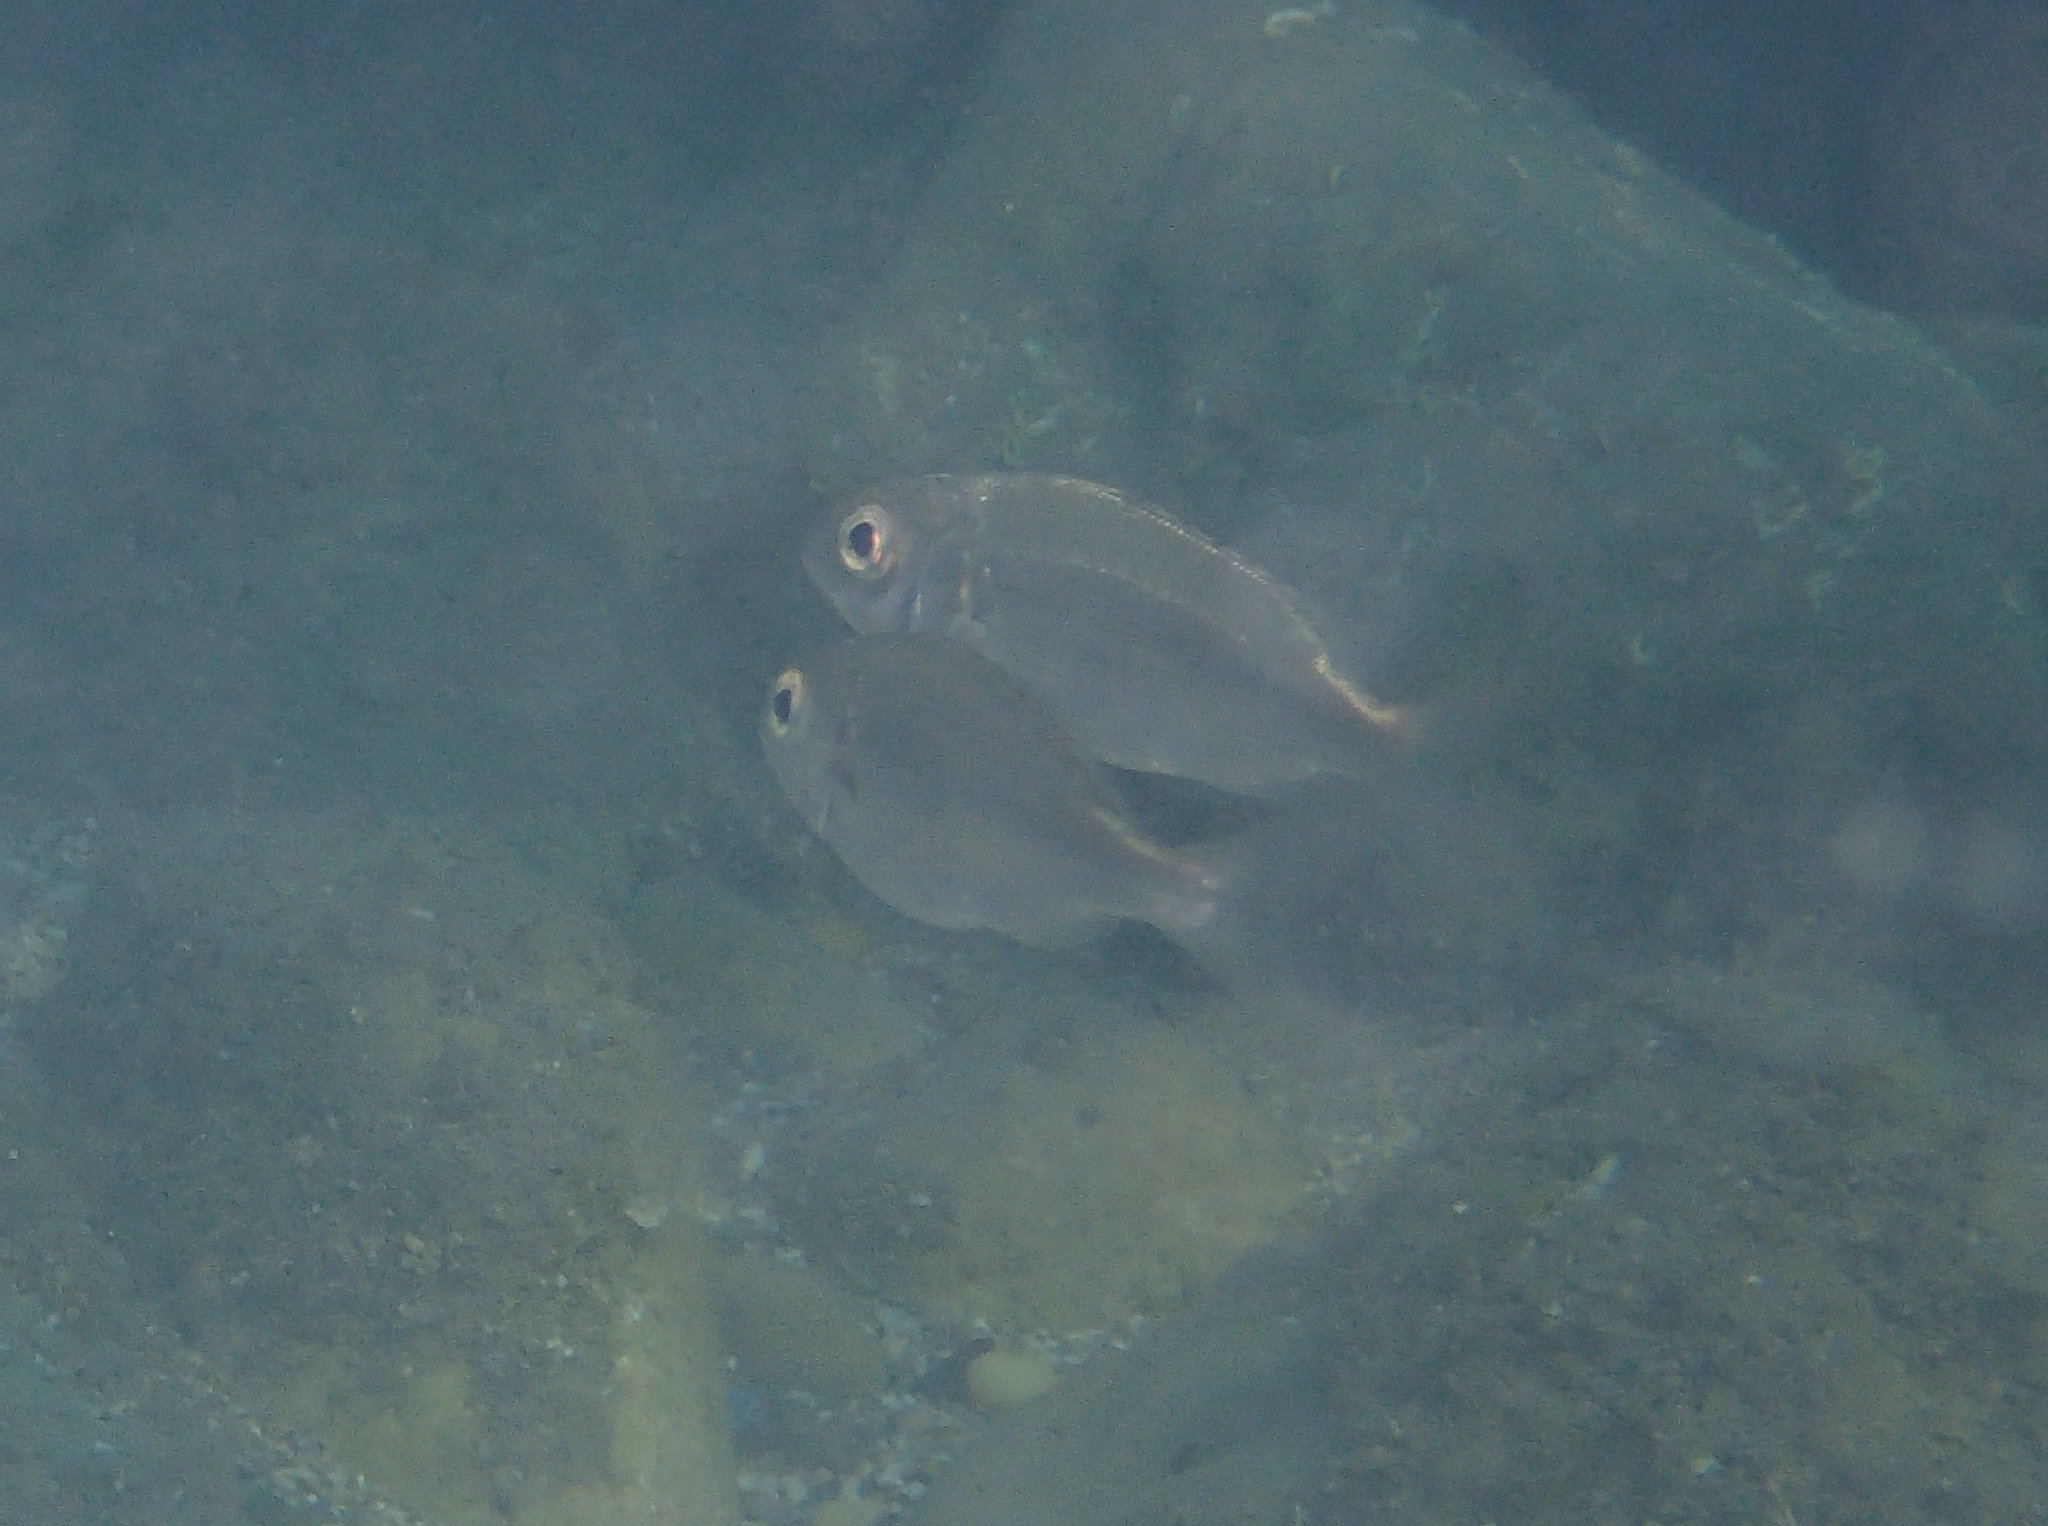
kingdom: Animalia
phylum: Chordata
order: Perciformes
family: Sparidae
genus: Pagellus
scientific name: Pagellus acarne
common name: Axillary sea-bream
